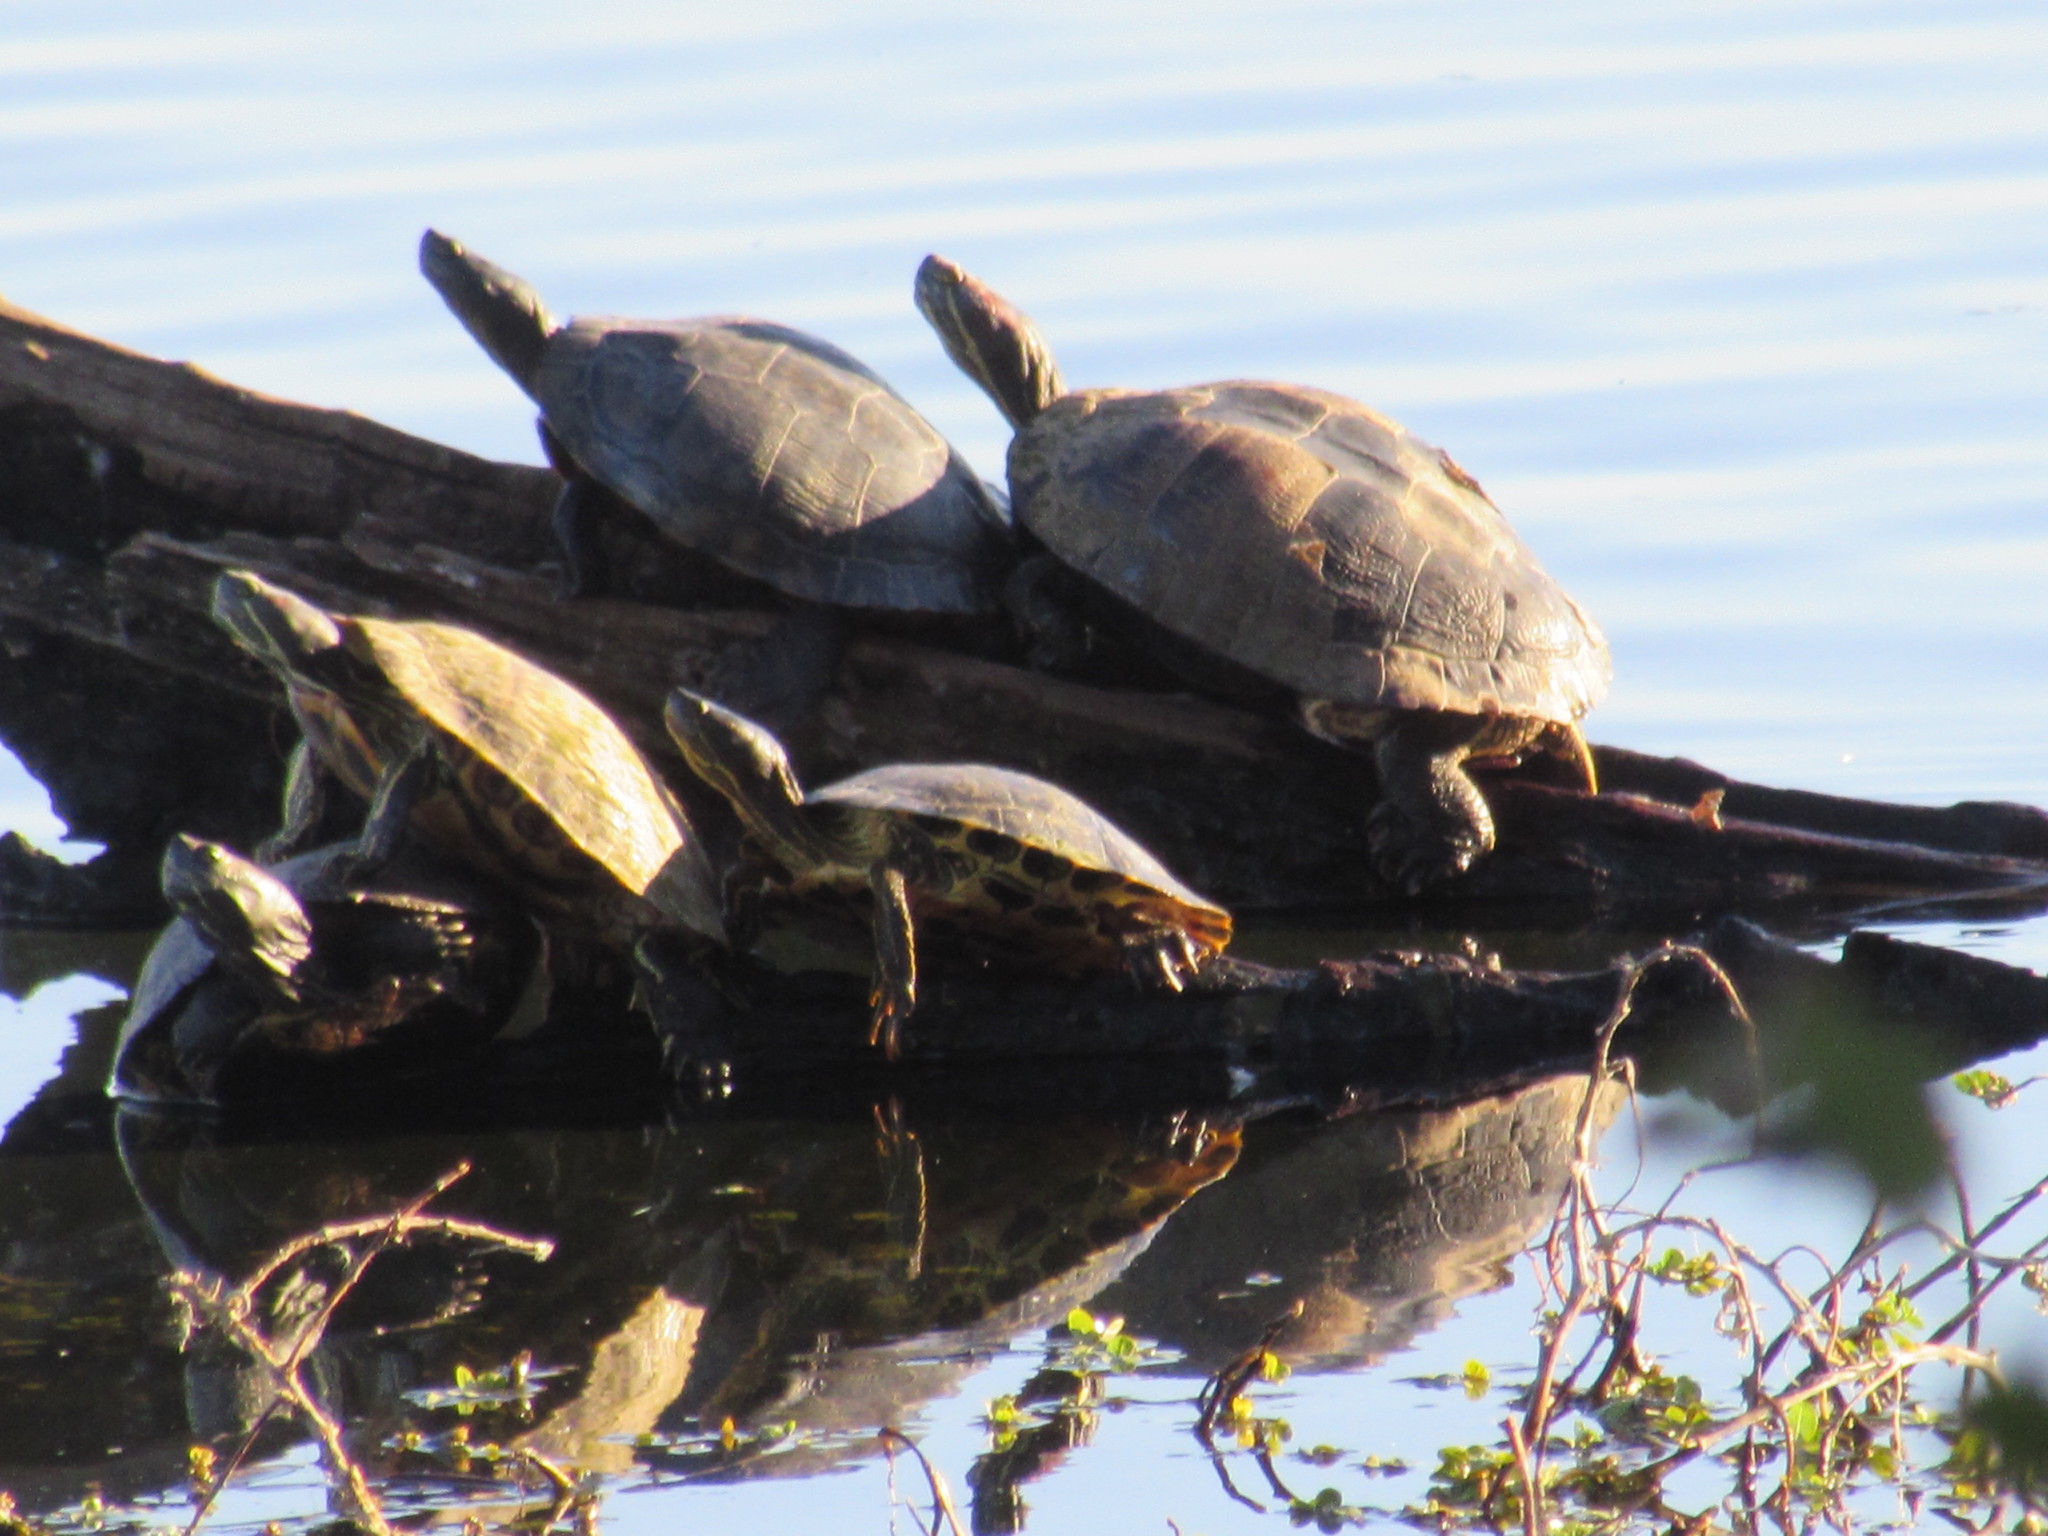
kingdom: Animalia
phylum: Chordata
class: Testudines
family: Emydidae
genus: Trachemys
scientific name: Trachemys scripta
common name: Slider
